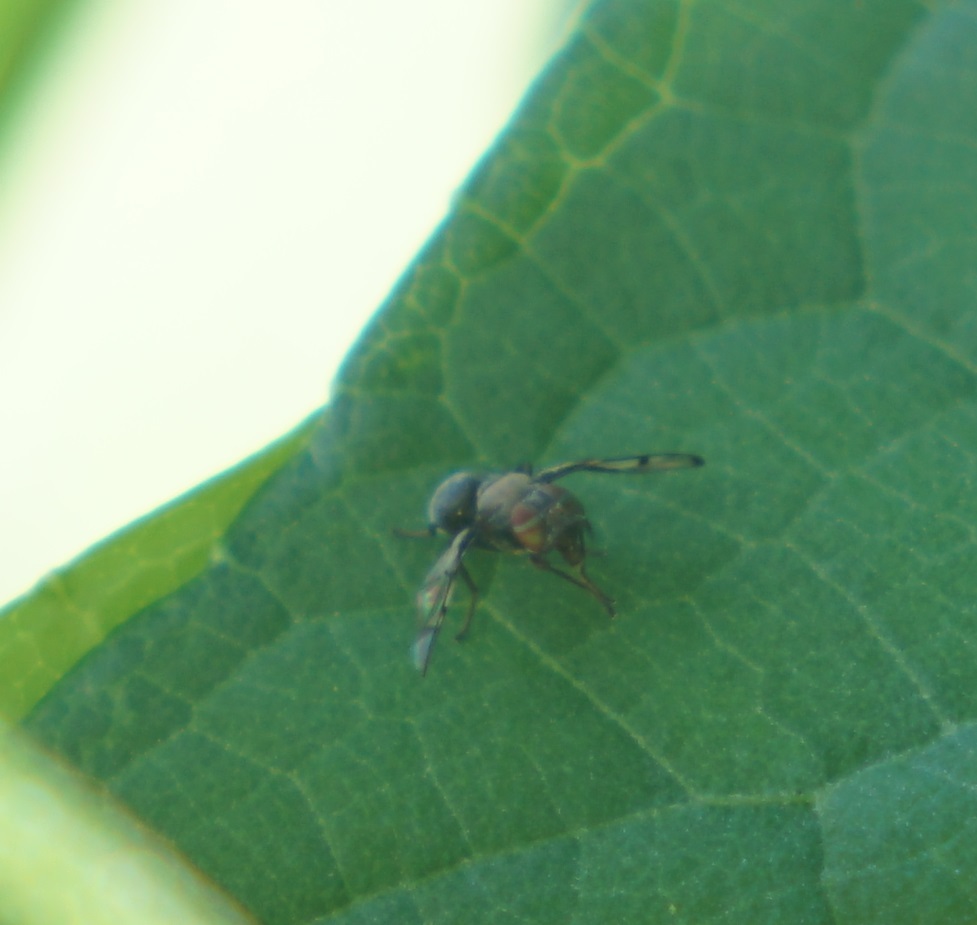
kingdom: Animalia
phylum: Arthropoda
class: Insecta
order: Diptera
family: Platystomatidae
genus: Pogonortalis
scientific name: Pogonortalis doclea
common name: Boatman fly
